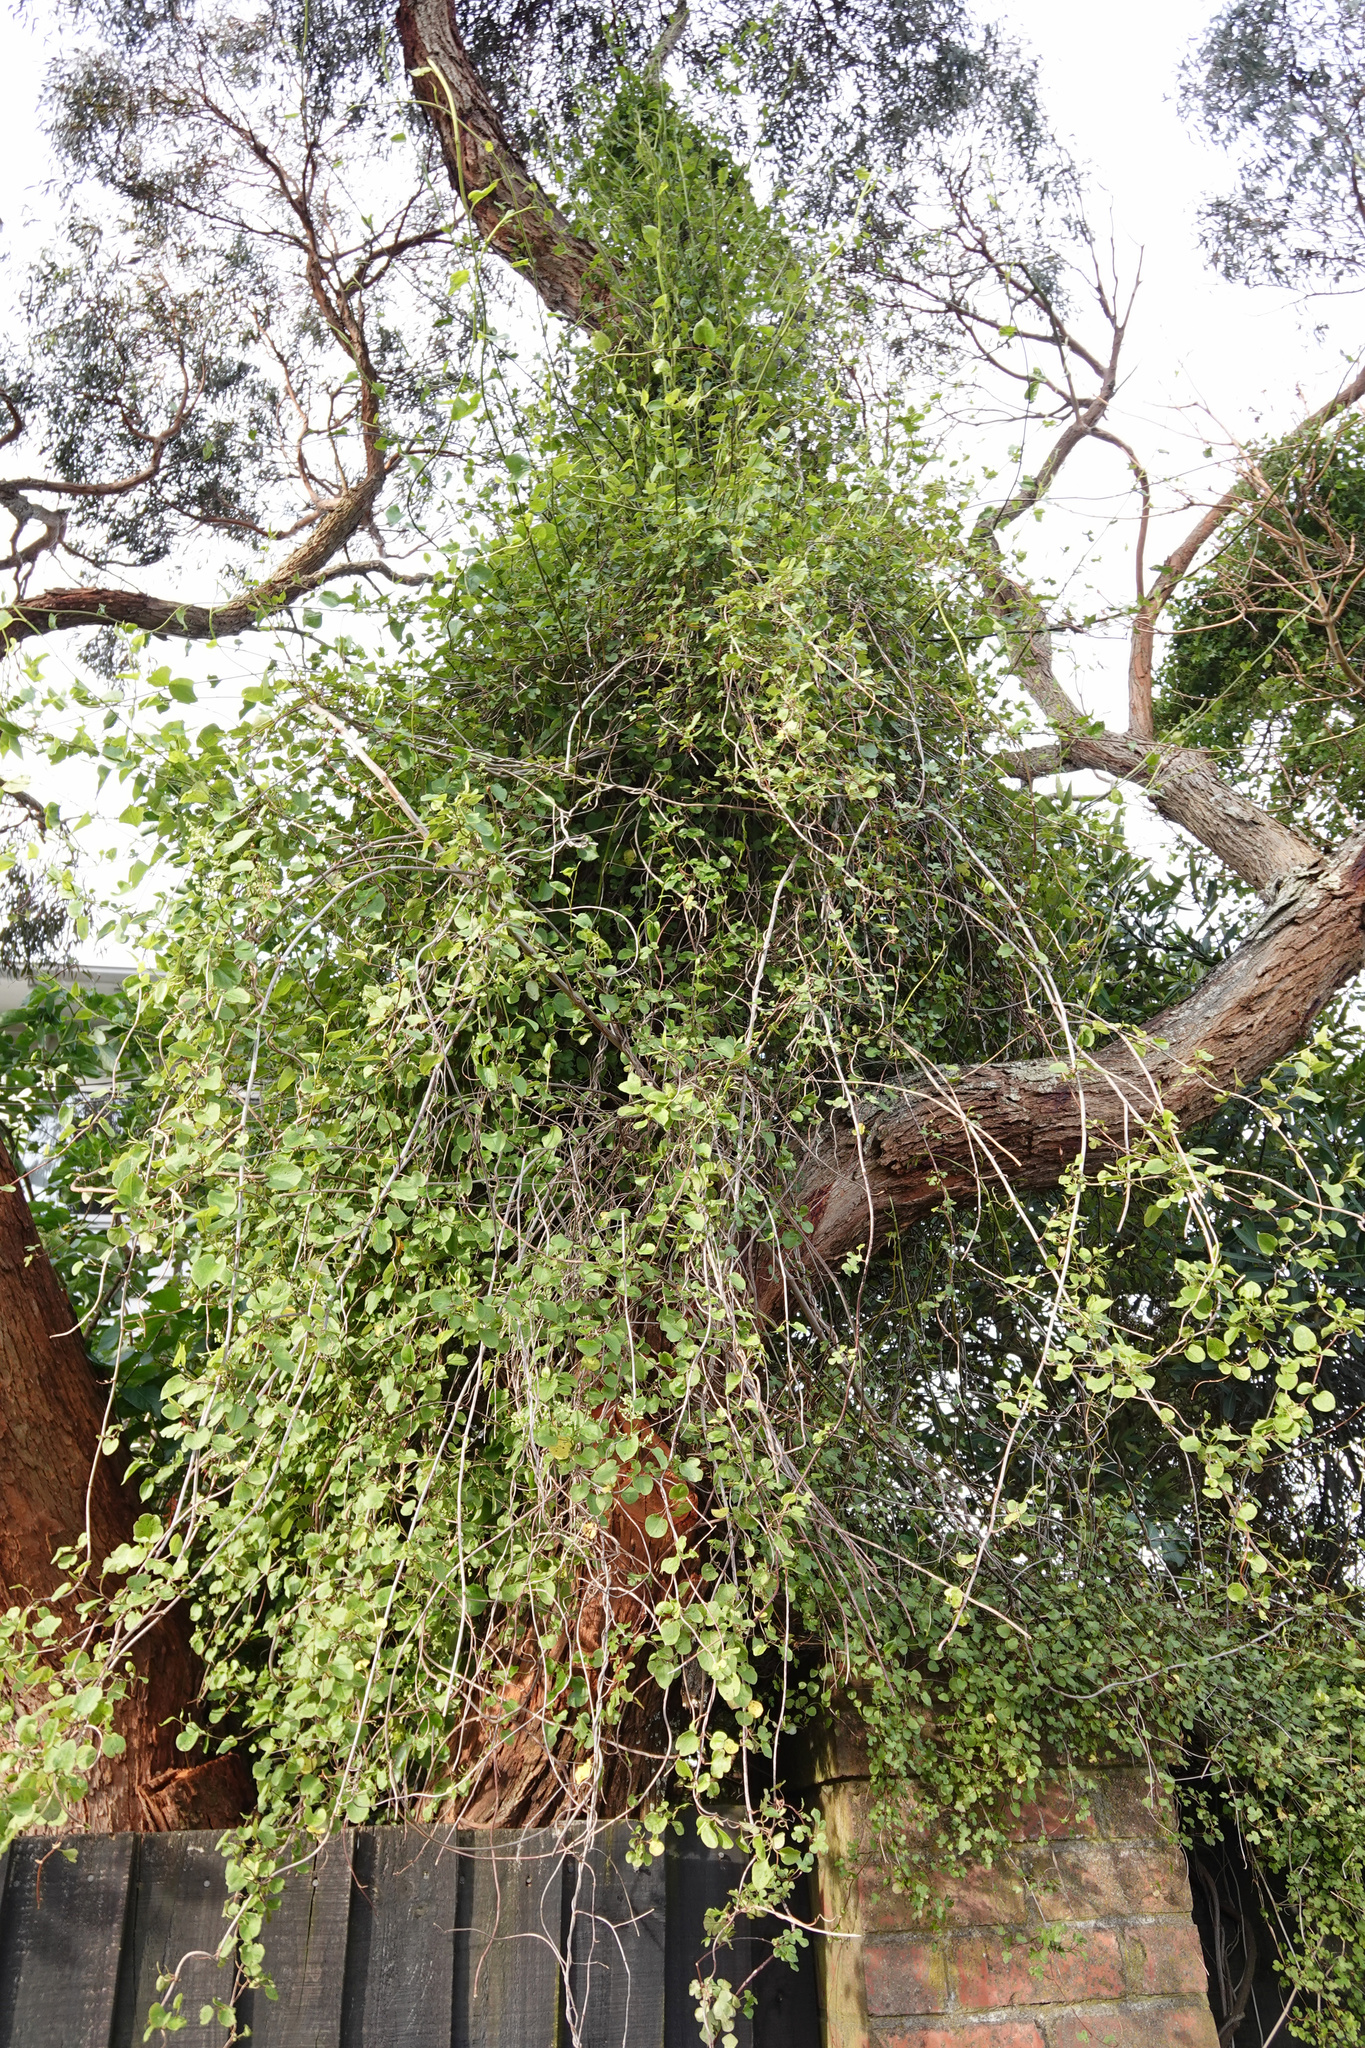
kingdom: Plantae
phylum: Tracheophyta
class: Magnoliopsida
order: Caryophyllales
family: Polygonaceae
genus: Muehlenbeckia
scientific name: Muehlenbeckia australis
